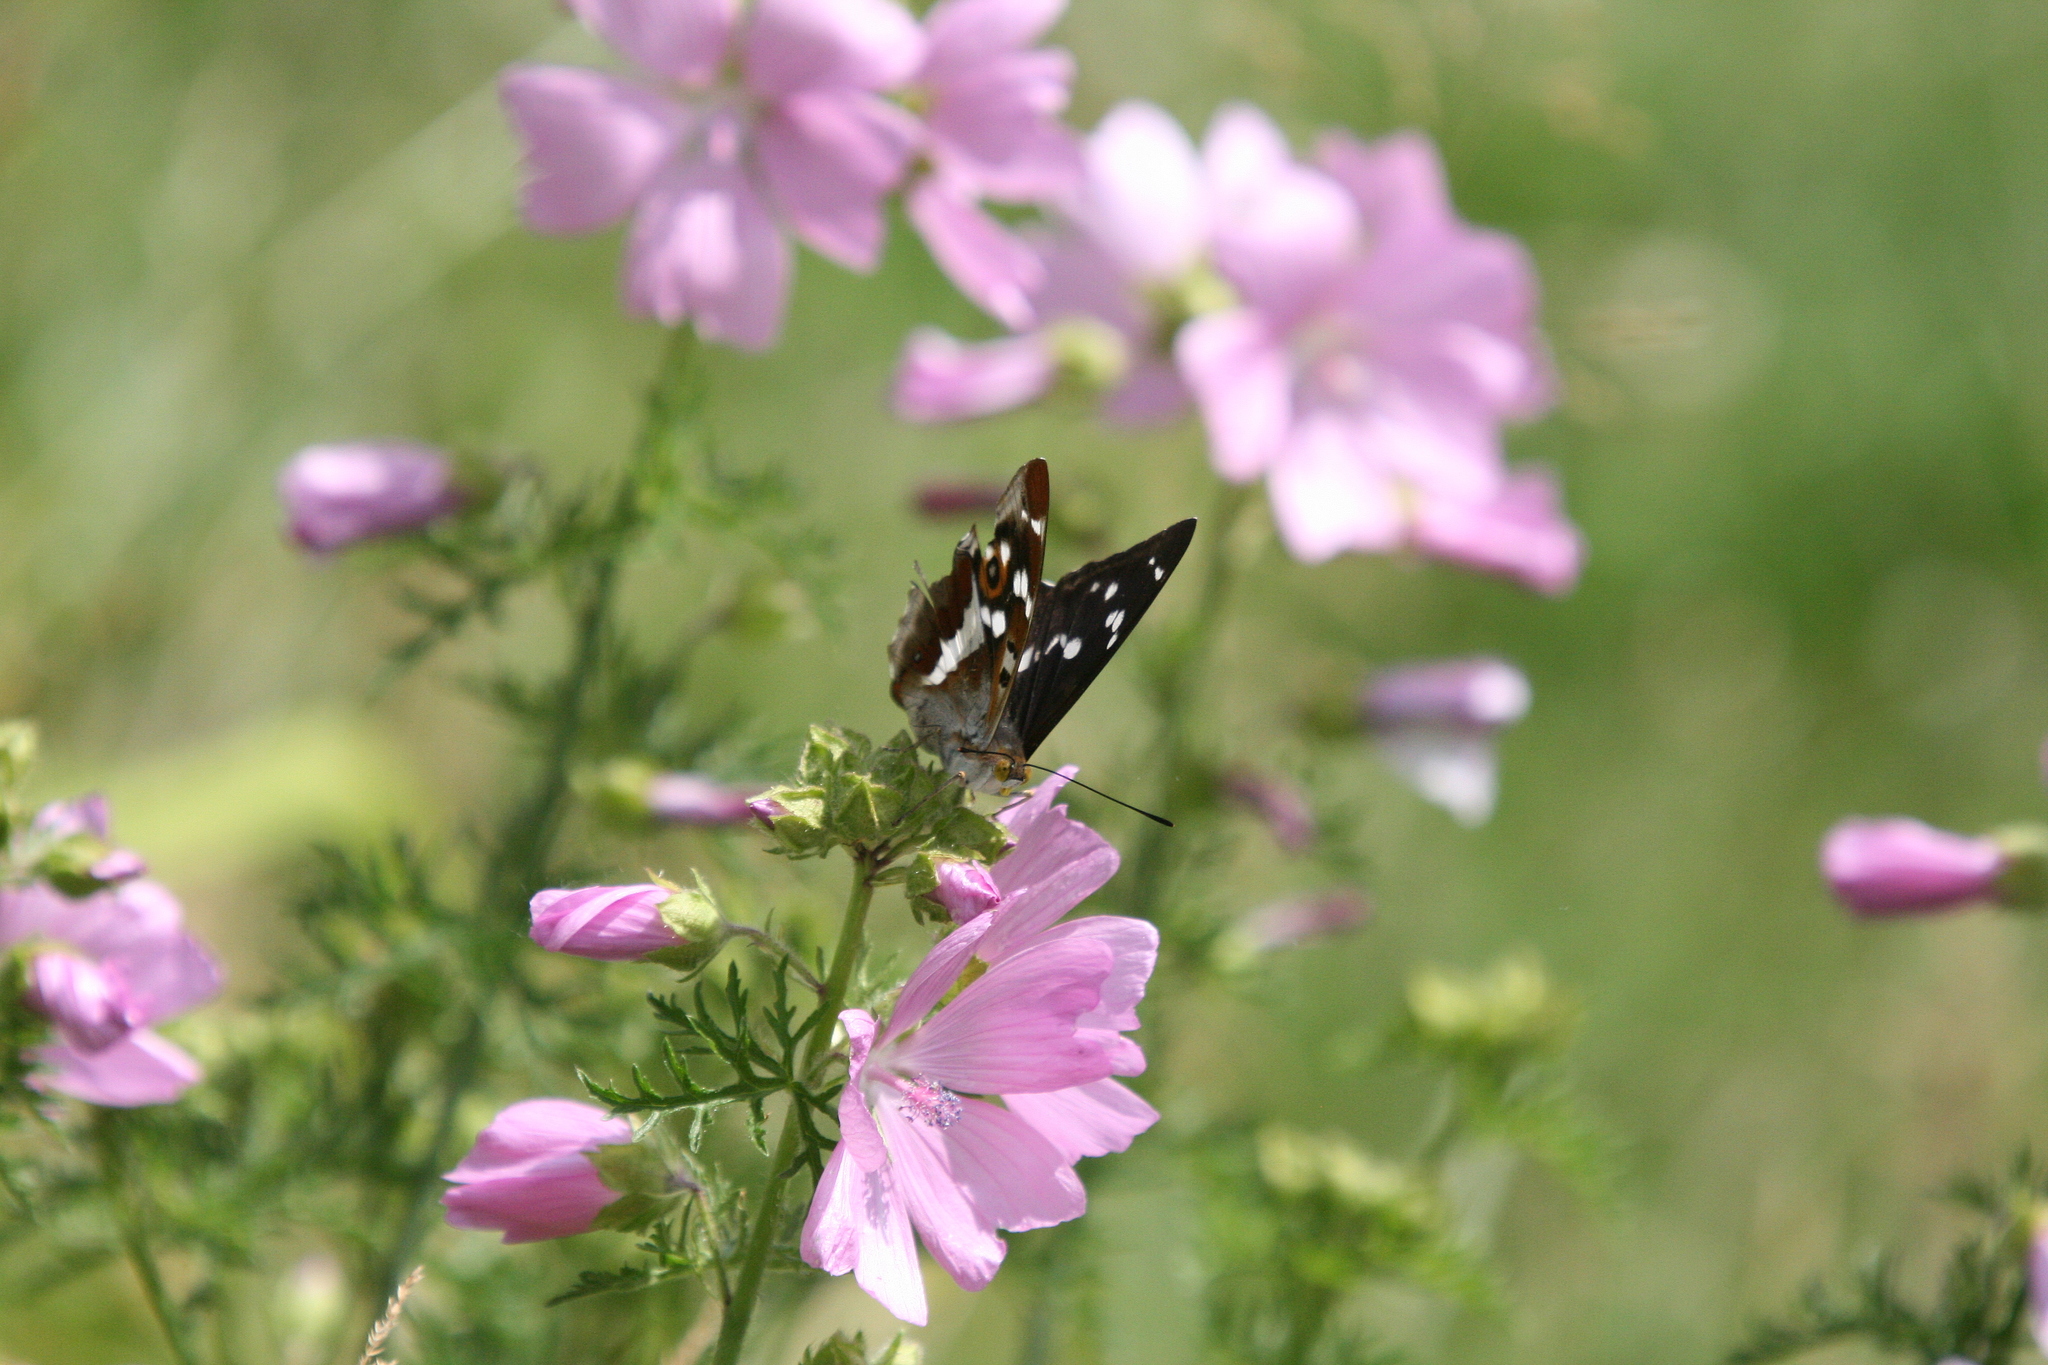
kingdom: Animalia
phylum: Arthropoda
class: Insecta
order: Lepidoptera
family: Nymphalidae
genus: Apatura
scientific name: Apatura iris
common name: Purple emperor
